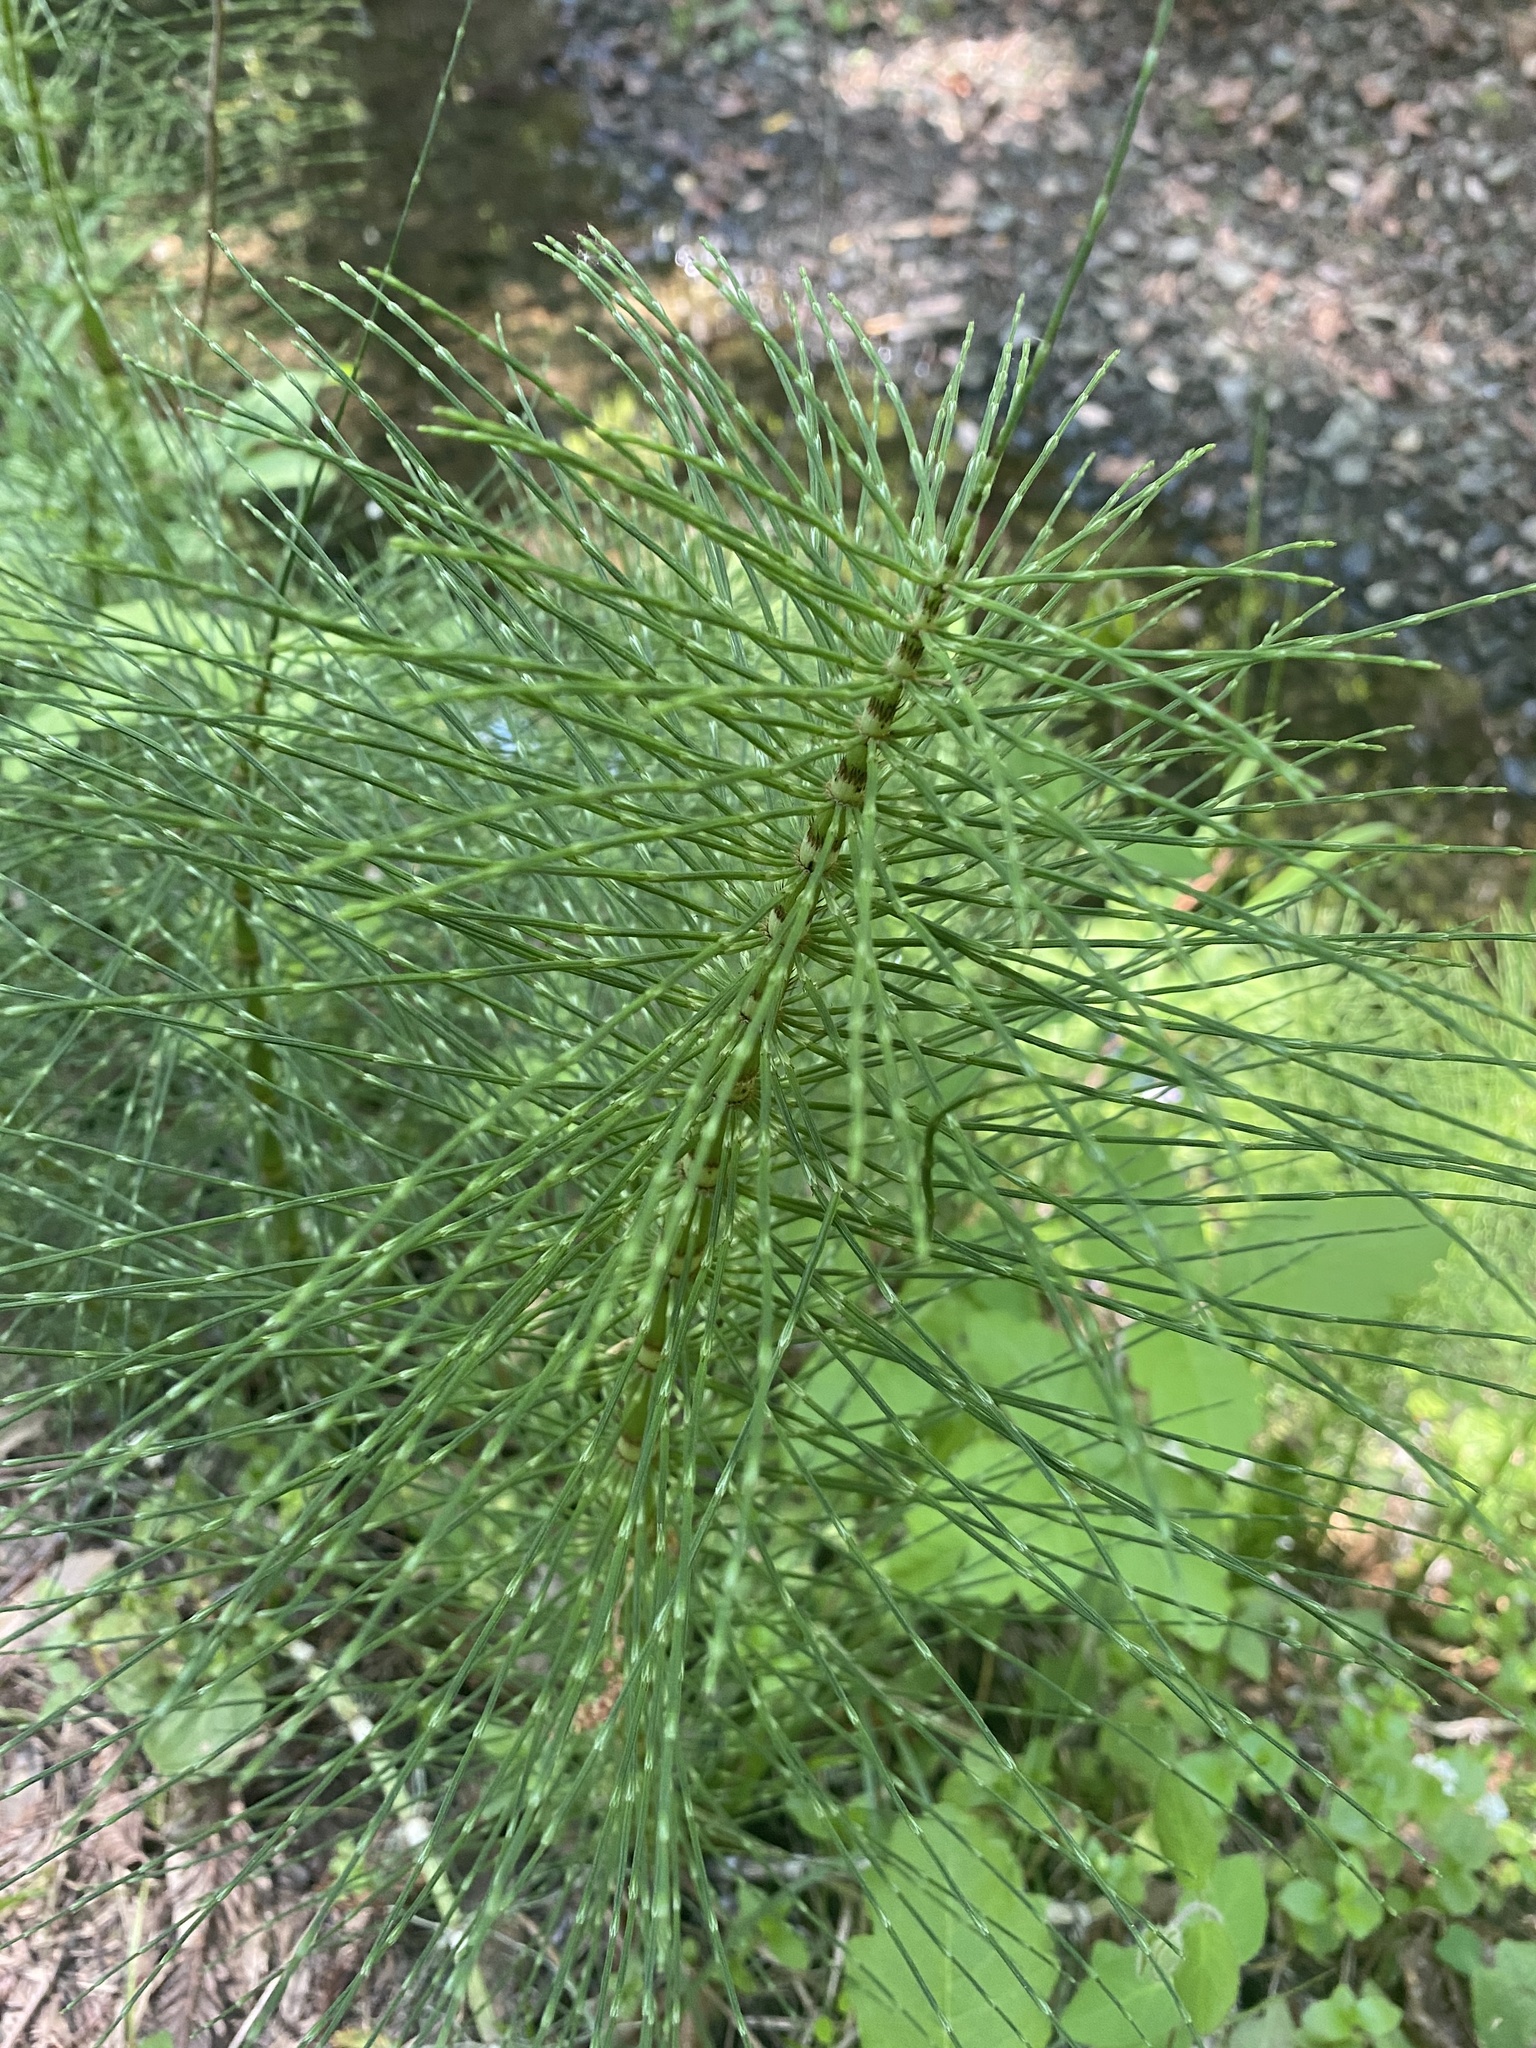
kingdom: Plantae
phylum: Tracheophyta
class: Polypodiopsida
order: Equisetales
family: Equisetaceae
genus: Equisetum
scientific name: Equisetum telmateia
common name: Great horsetail
